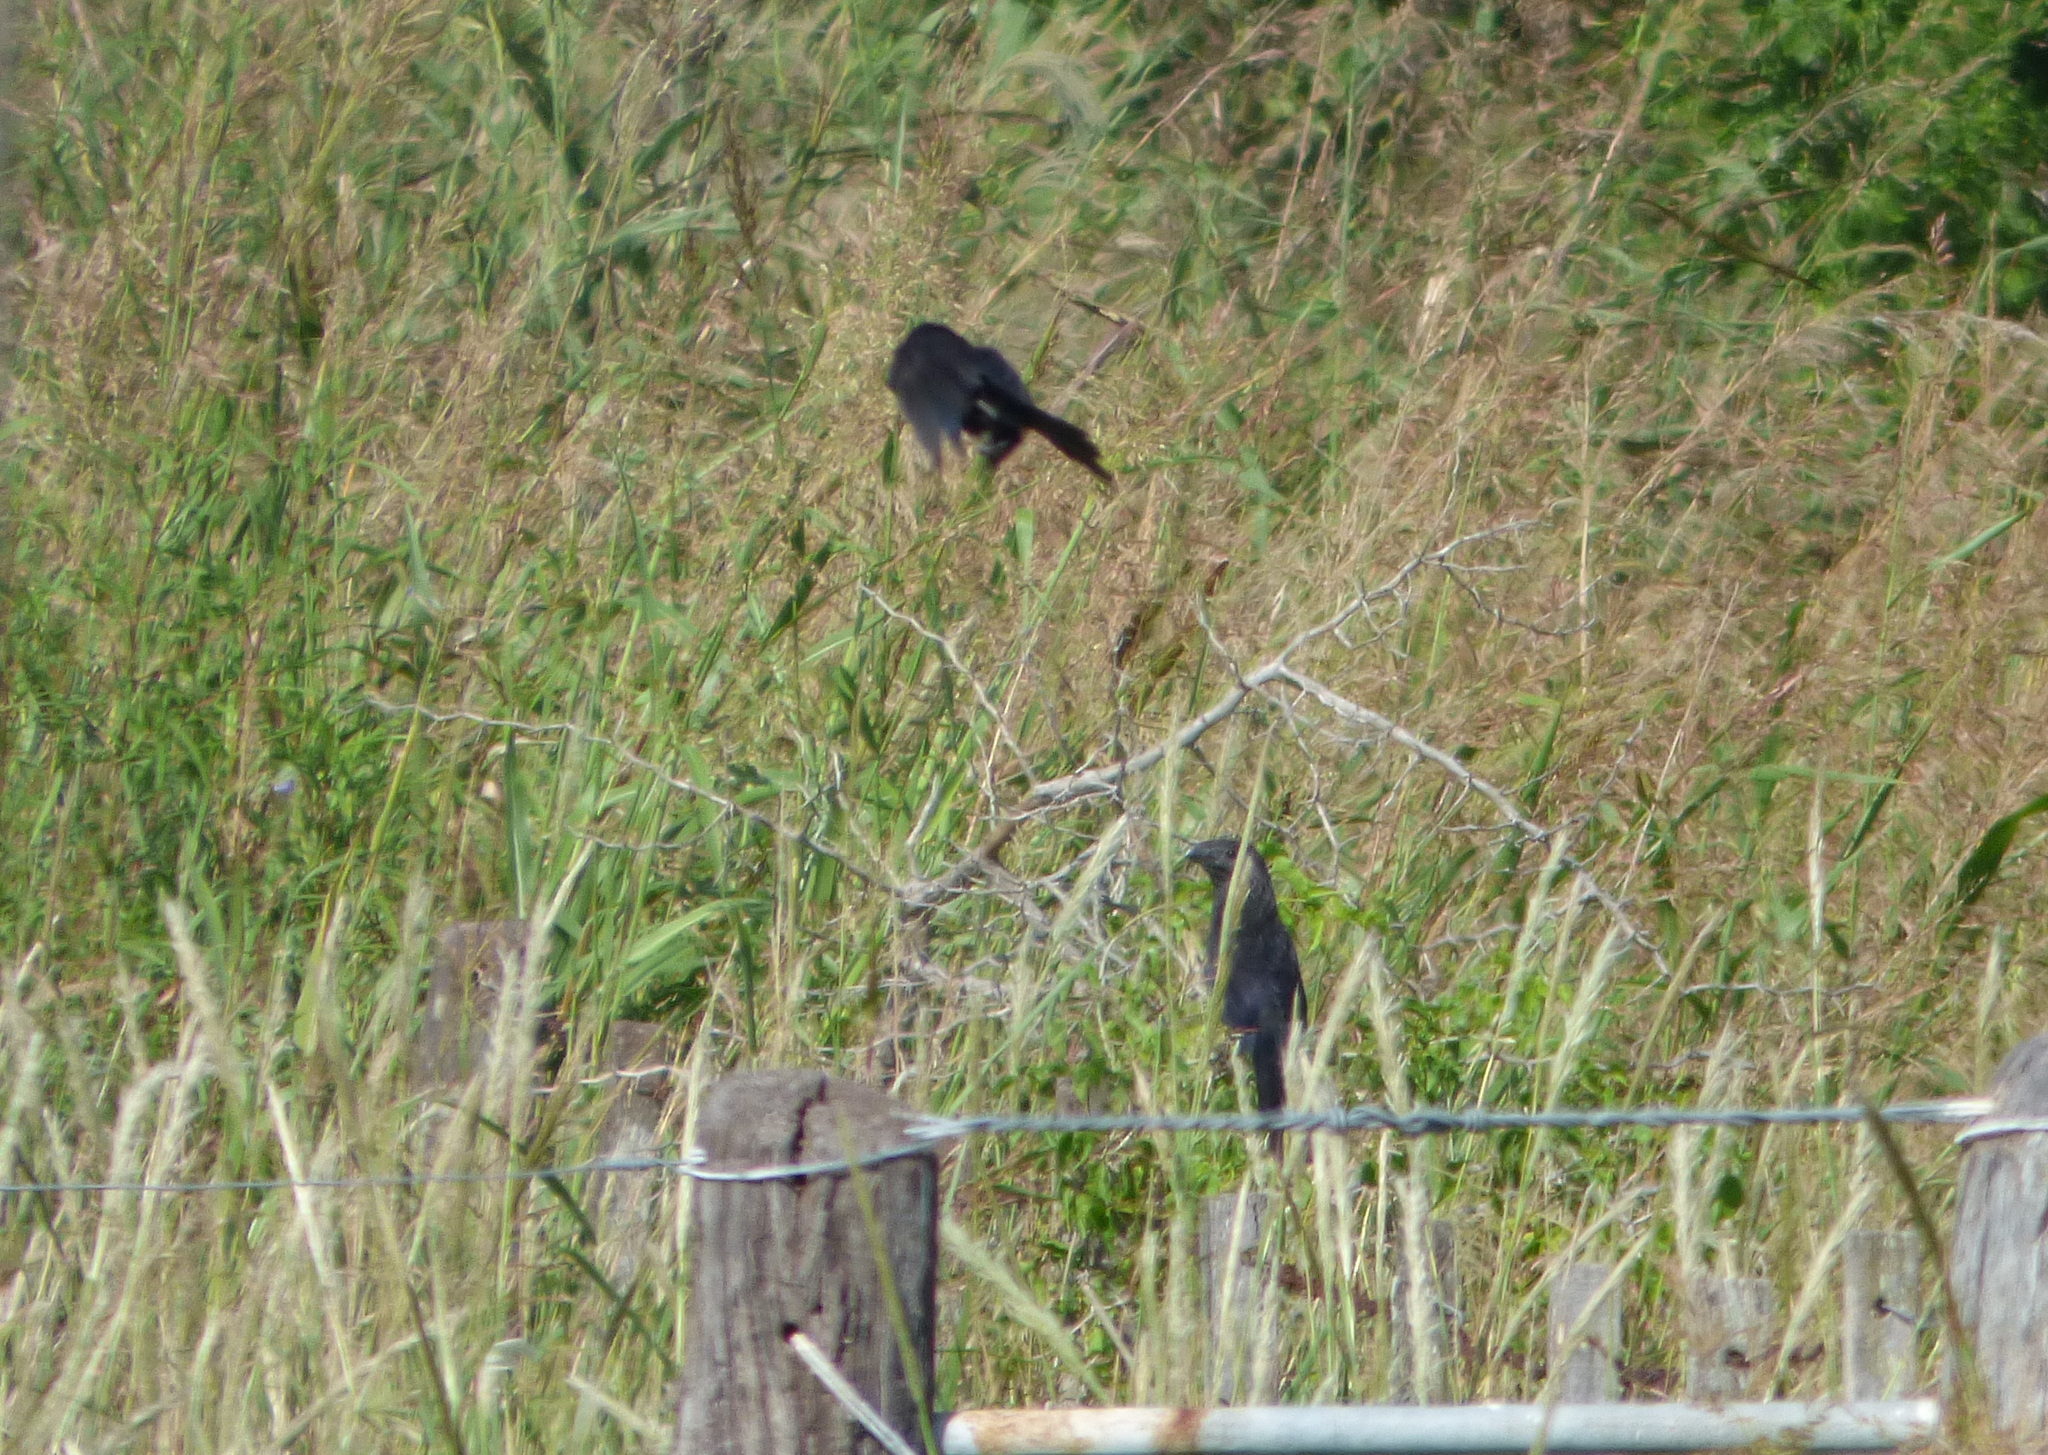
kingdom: Animalia
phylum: Chordata
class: Aves
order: Cuculiformes
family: Cuculidae
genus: Crotophaga
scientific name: Crotophaga ani
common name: Smooth-billed ani
